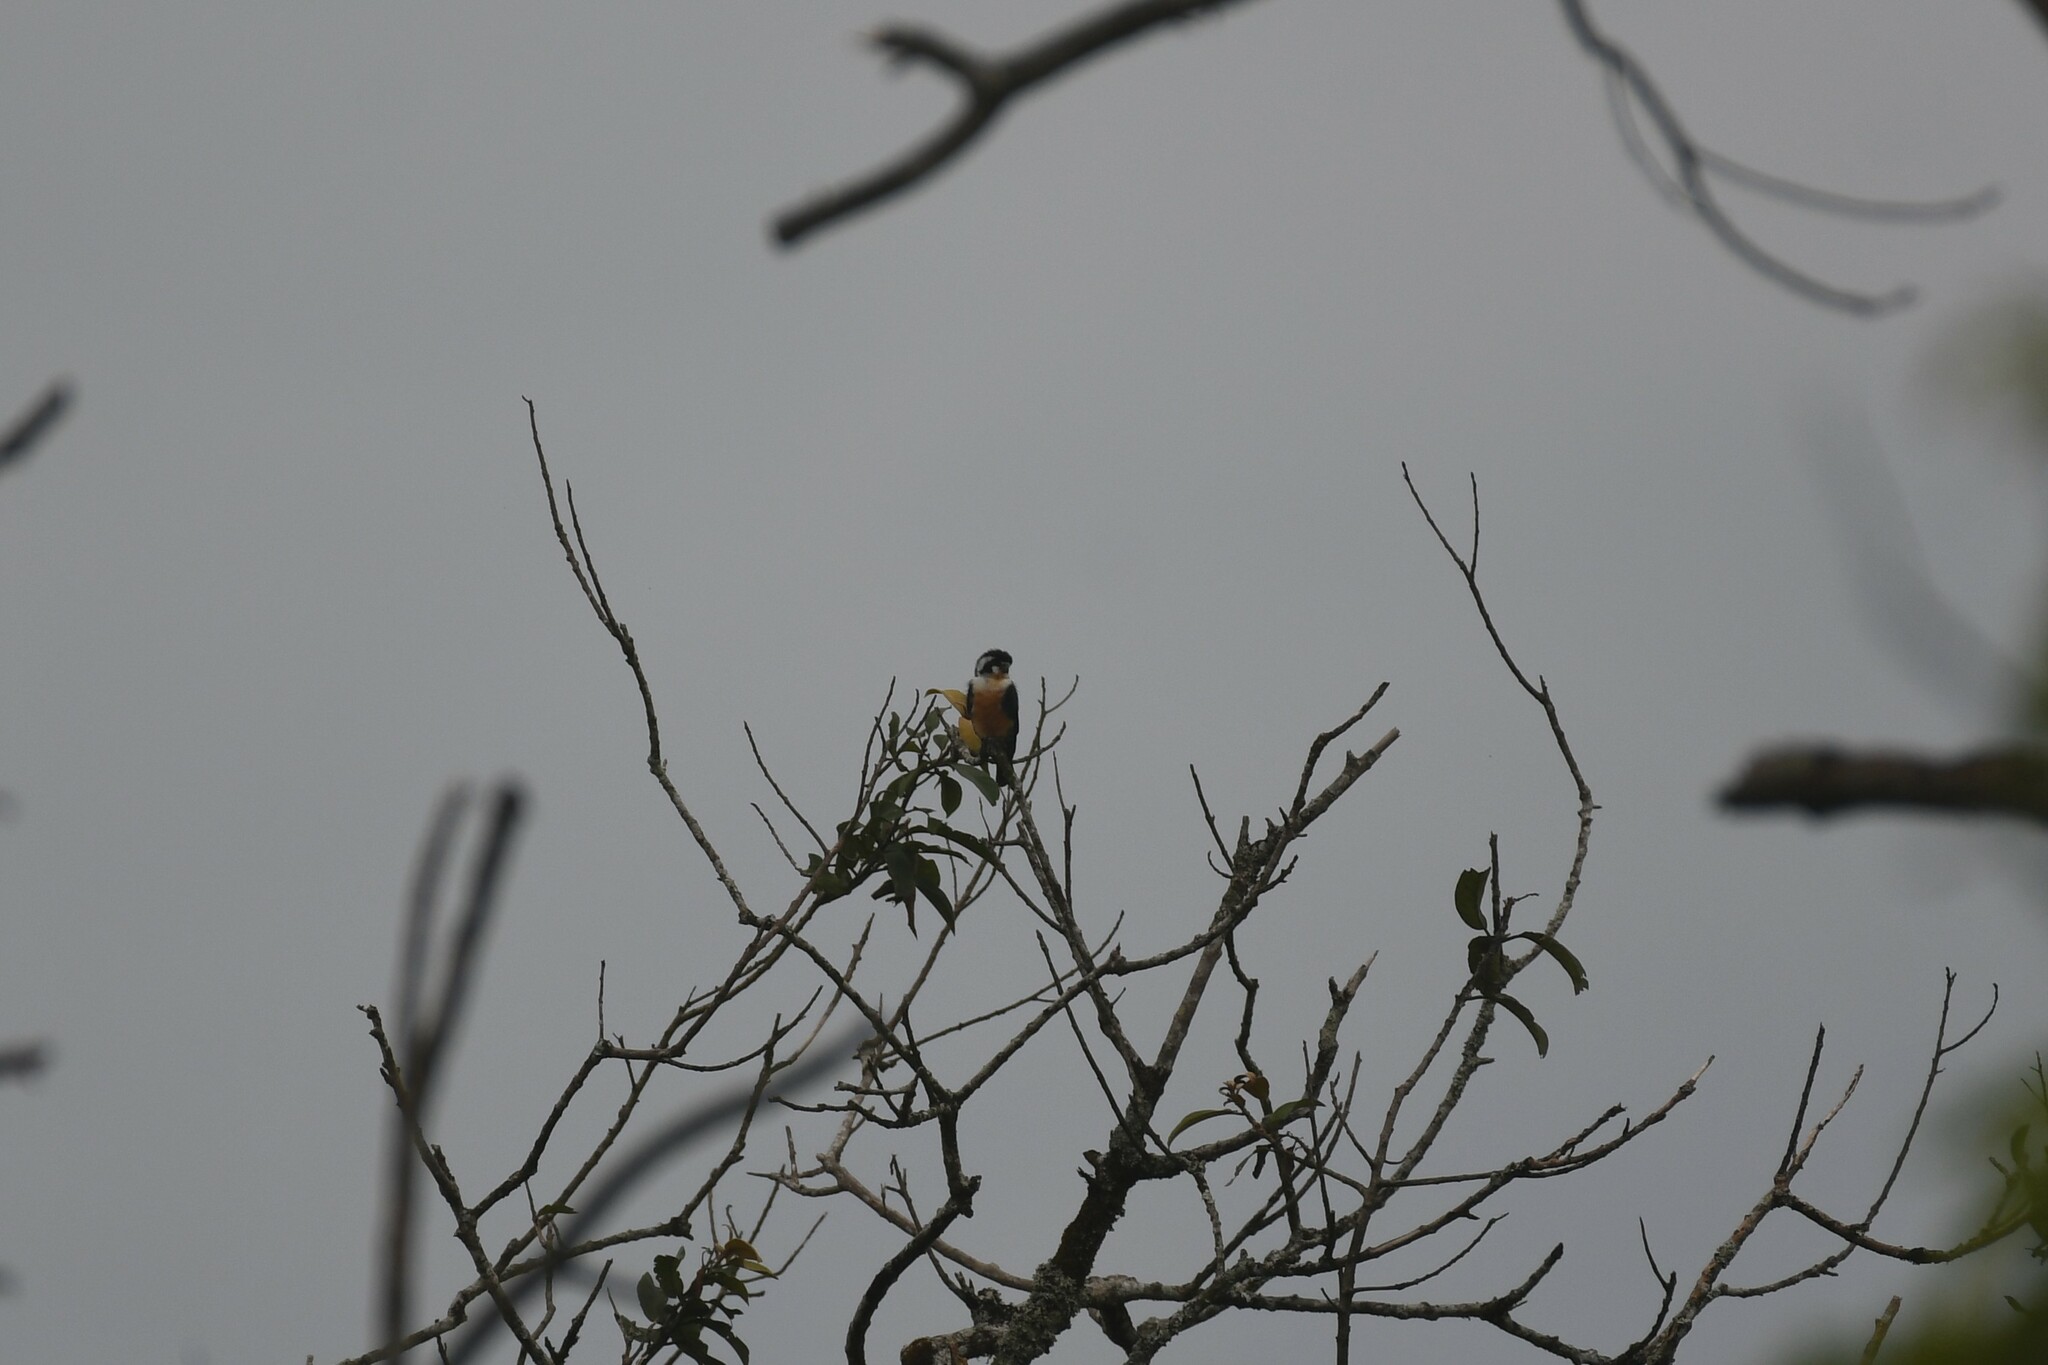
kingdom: Animalia
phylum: Chordata
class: Aves
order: Falconiformes
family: Falconidae
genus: Microhierax
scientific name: Microhierax fringillarius
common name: Black-thighed falconet
